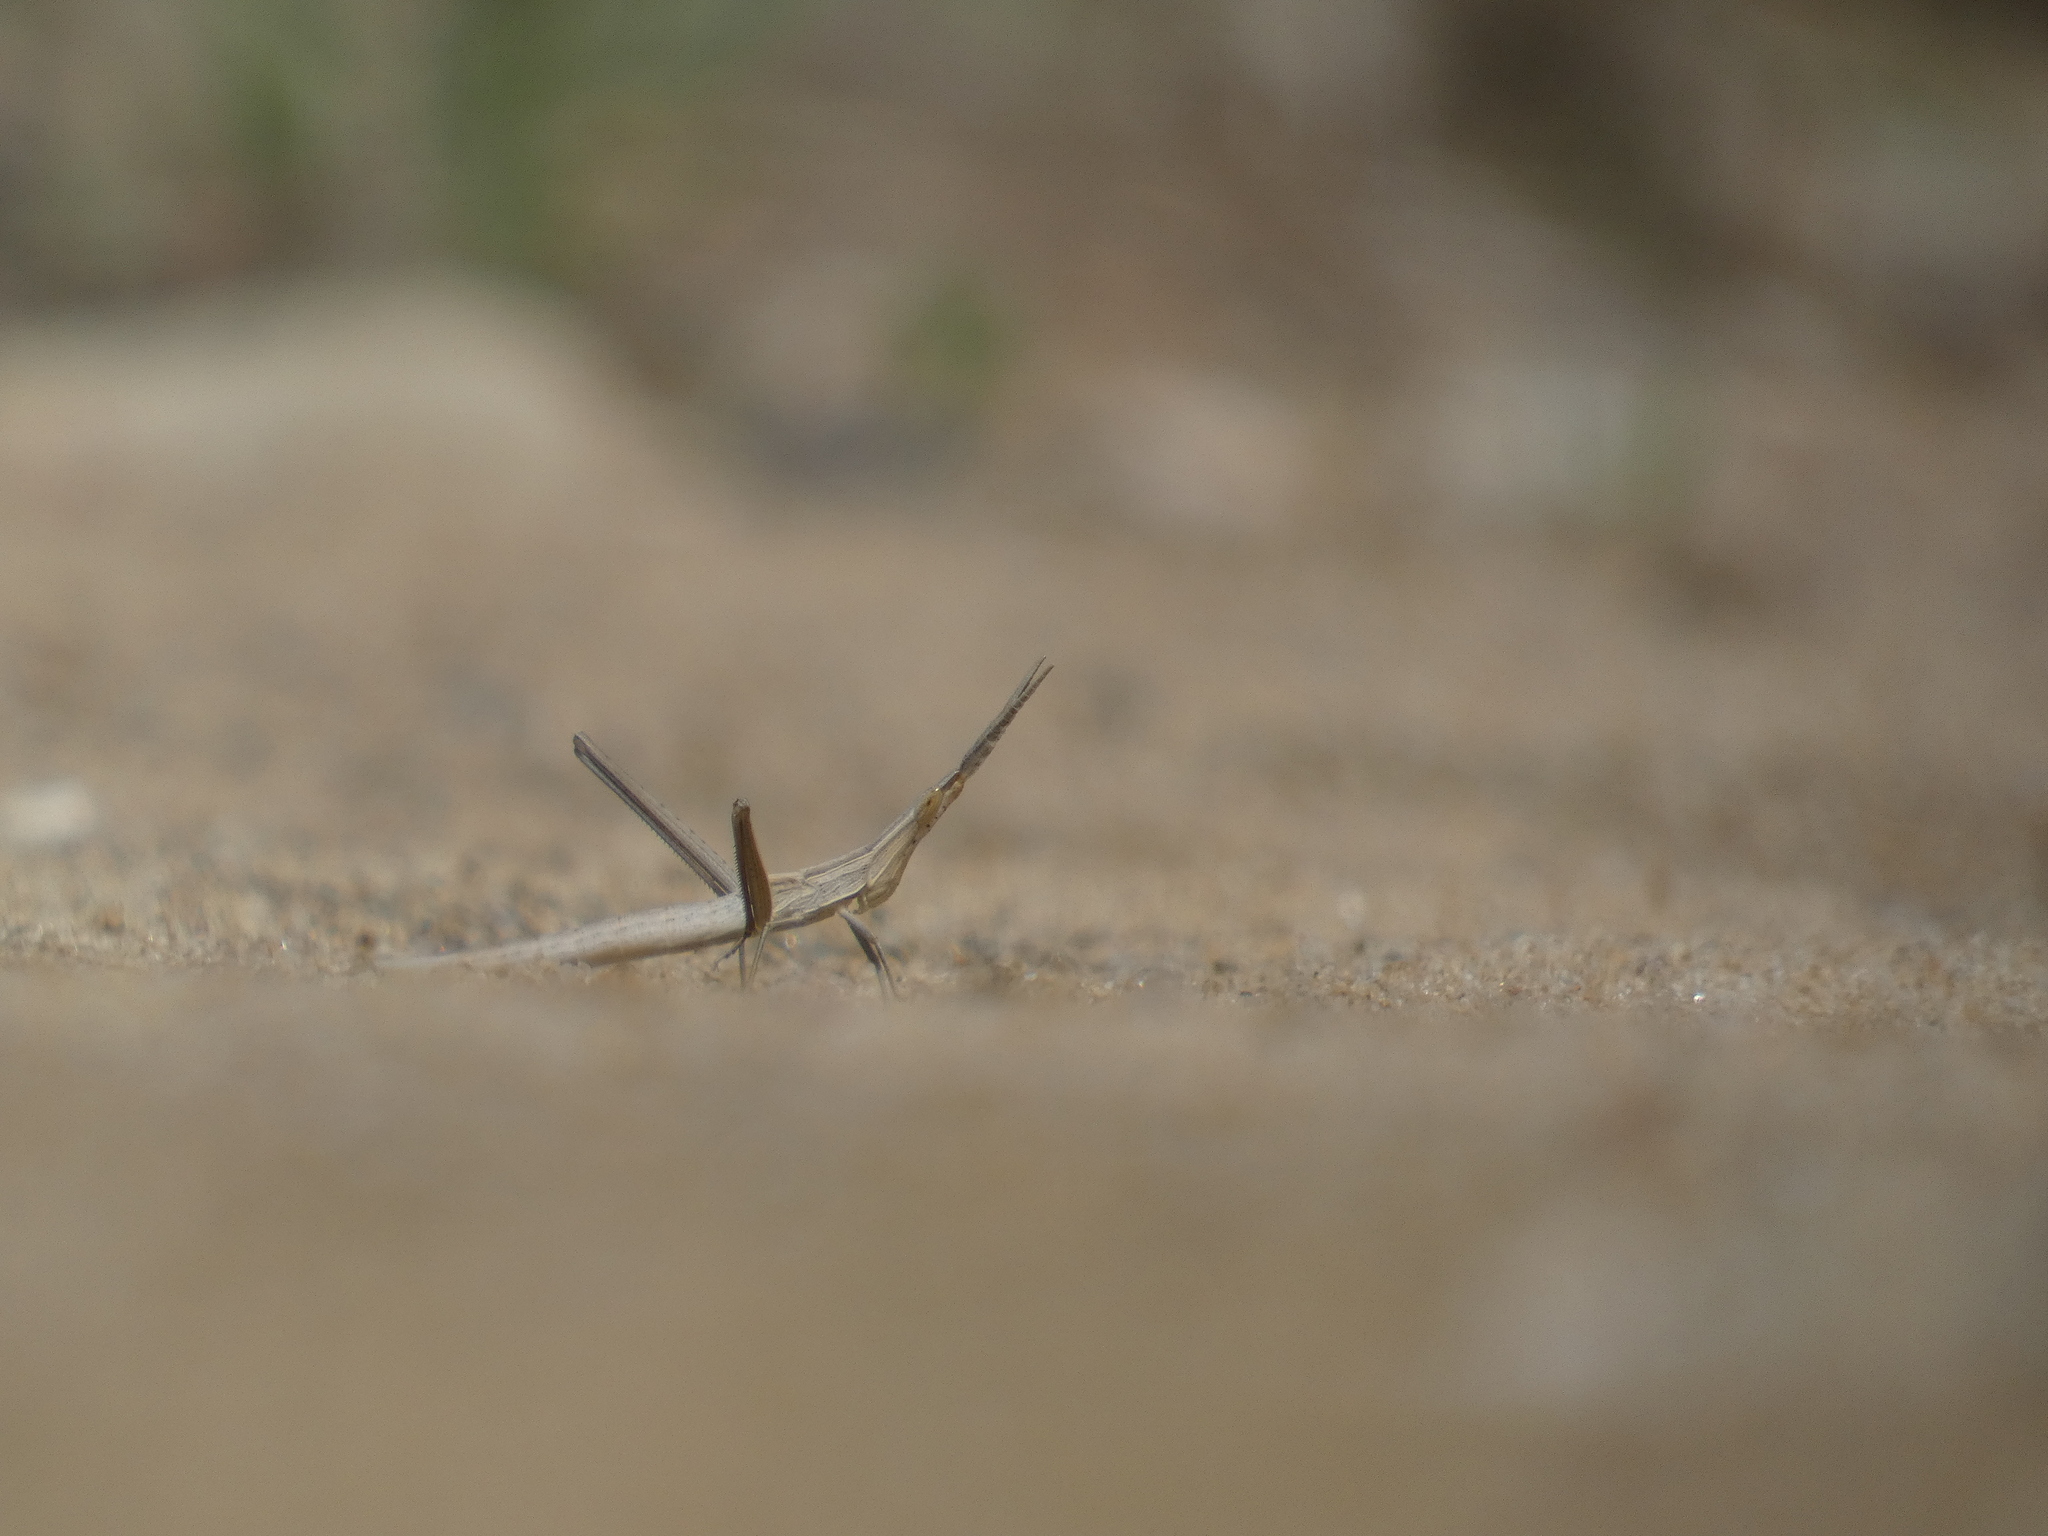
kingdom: Animalia
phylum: Arthropoda
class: Insecta
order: Orthoptera
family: Acrididae
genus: Acrida
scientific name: Acrida ungarica
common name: Common cone-headed grasshopper
